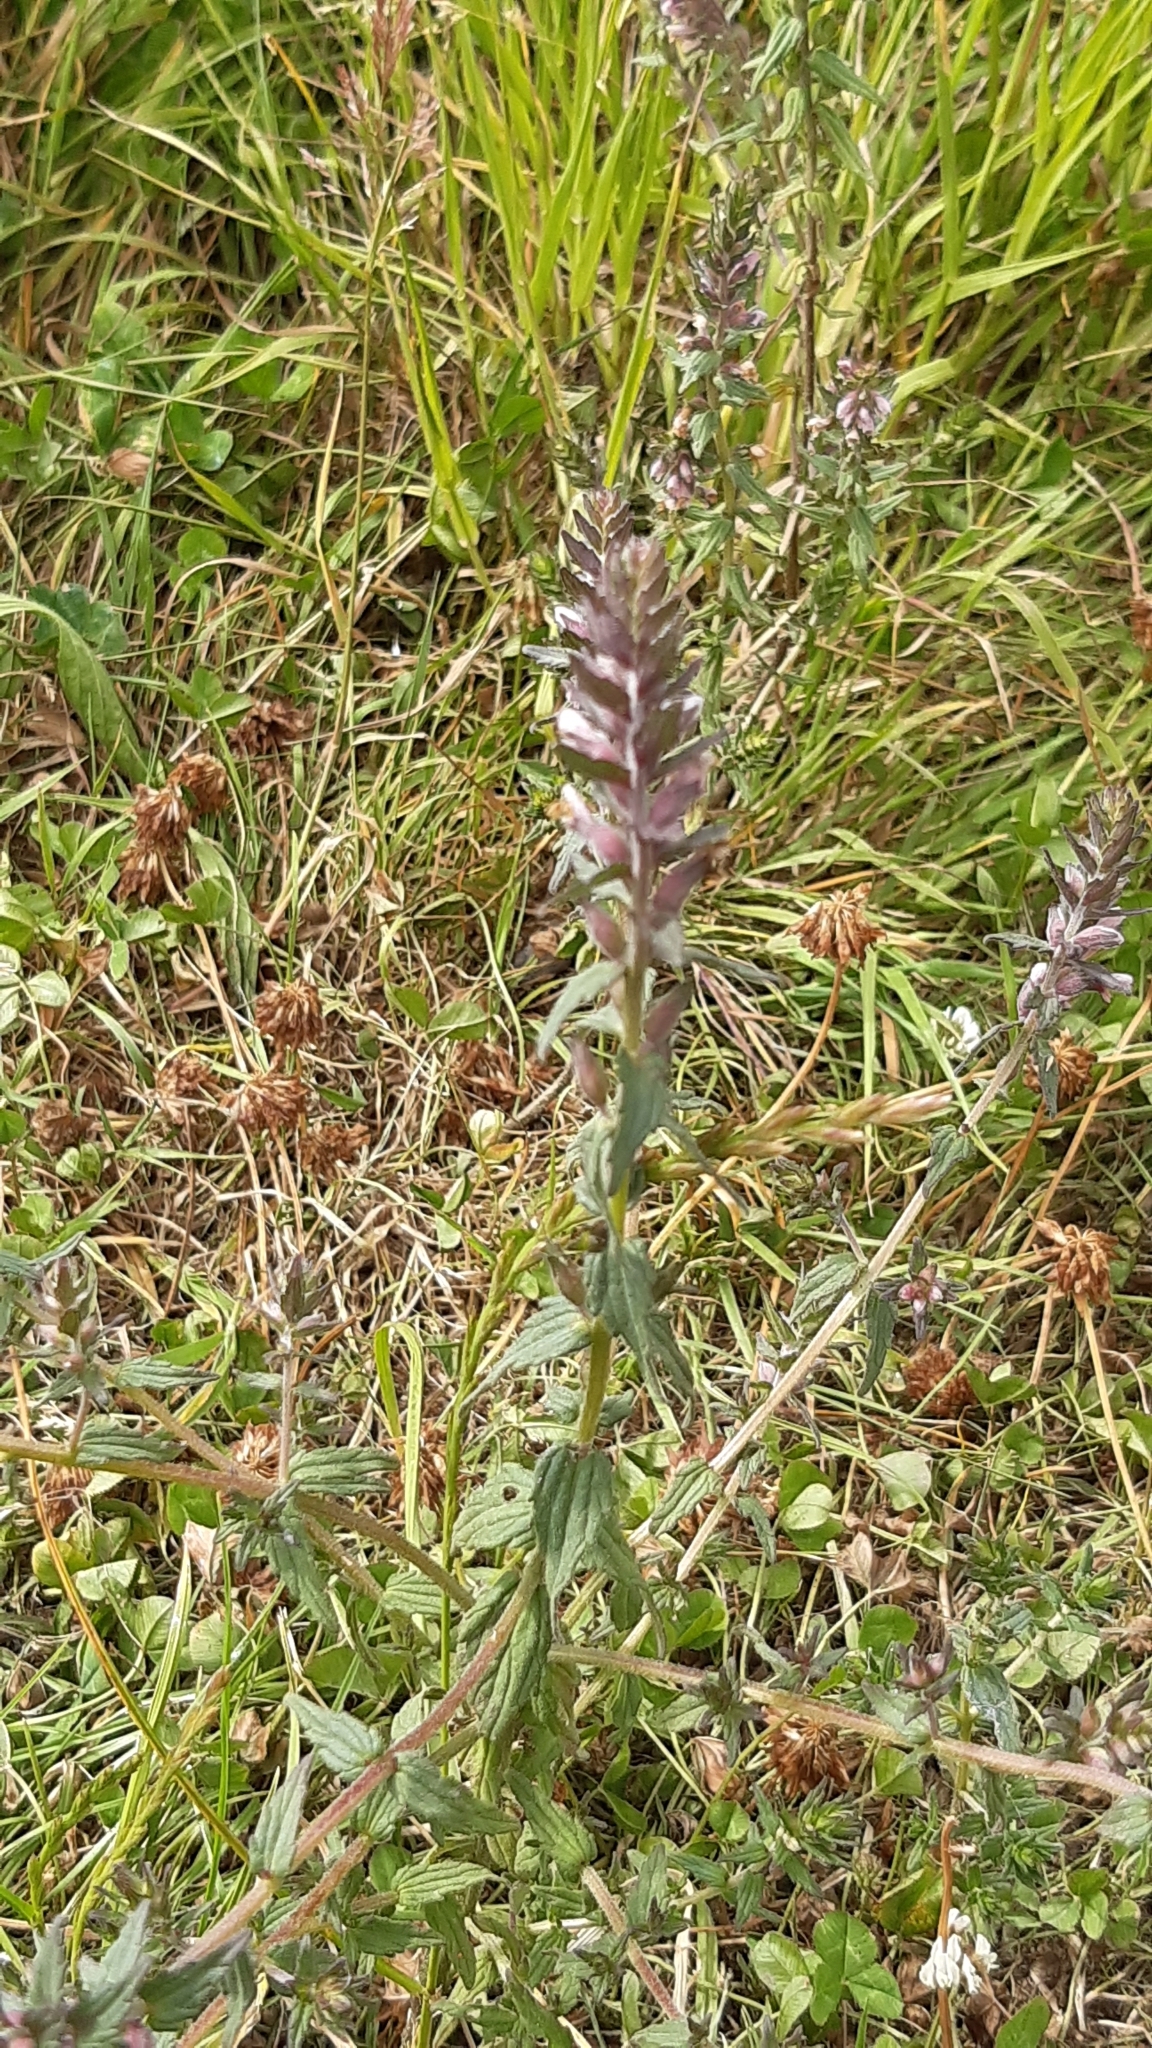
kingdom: Plantae
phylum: Tracheophyta
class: Magnoliopsida
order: Lamiales
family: Orobanchaceae
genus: Odontites
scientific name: Odontites vulgaris
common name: Broomrape
